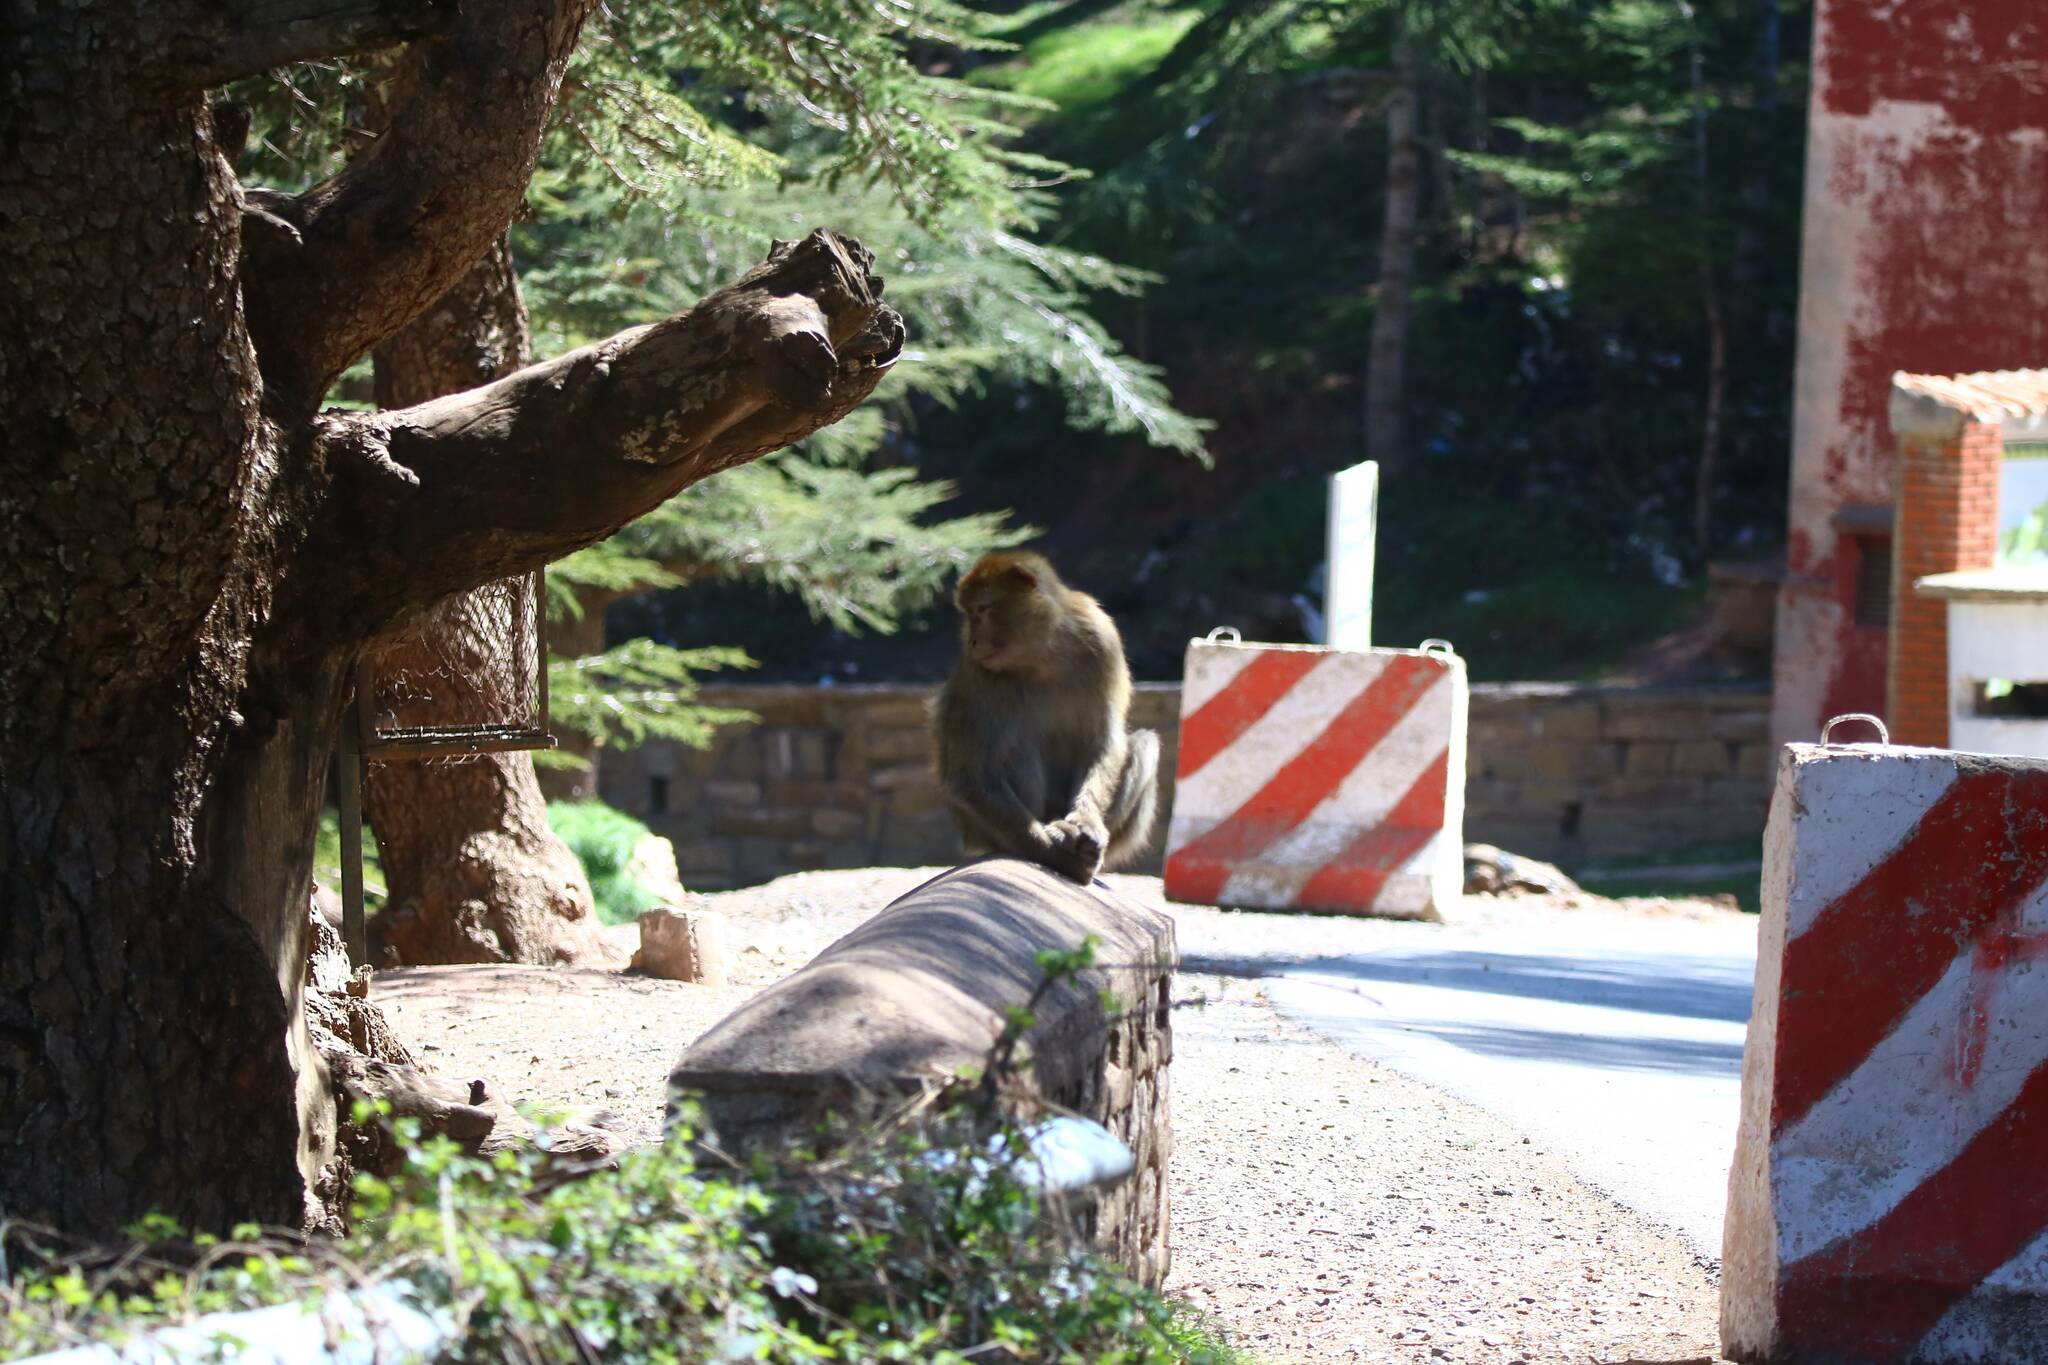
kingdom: Animalia
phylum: Chordata
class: Mammalia
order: Primates
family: Cercopithecidae
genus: Macaca
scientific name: Macaca sylvanus
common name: Barbary macaque
